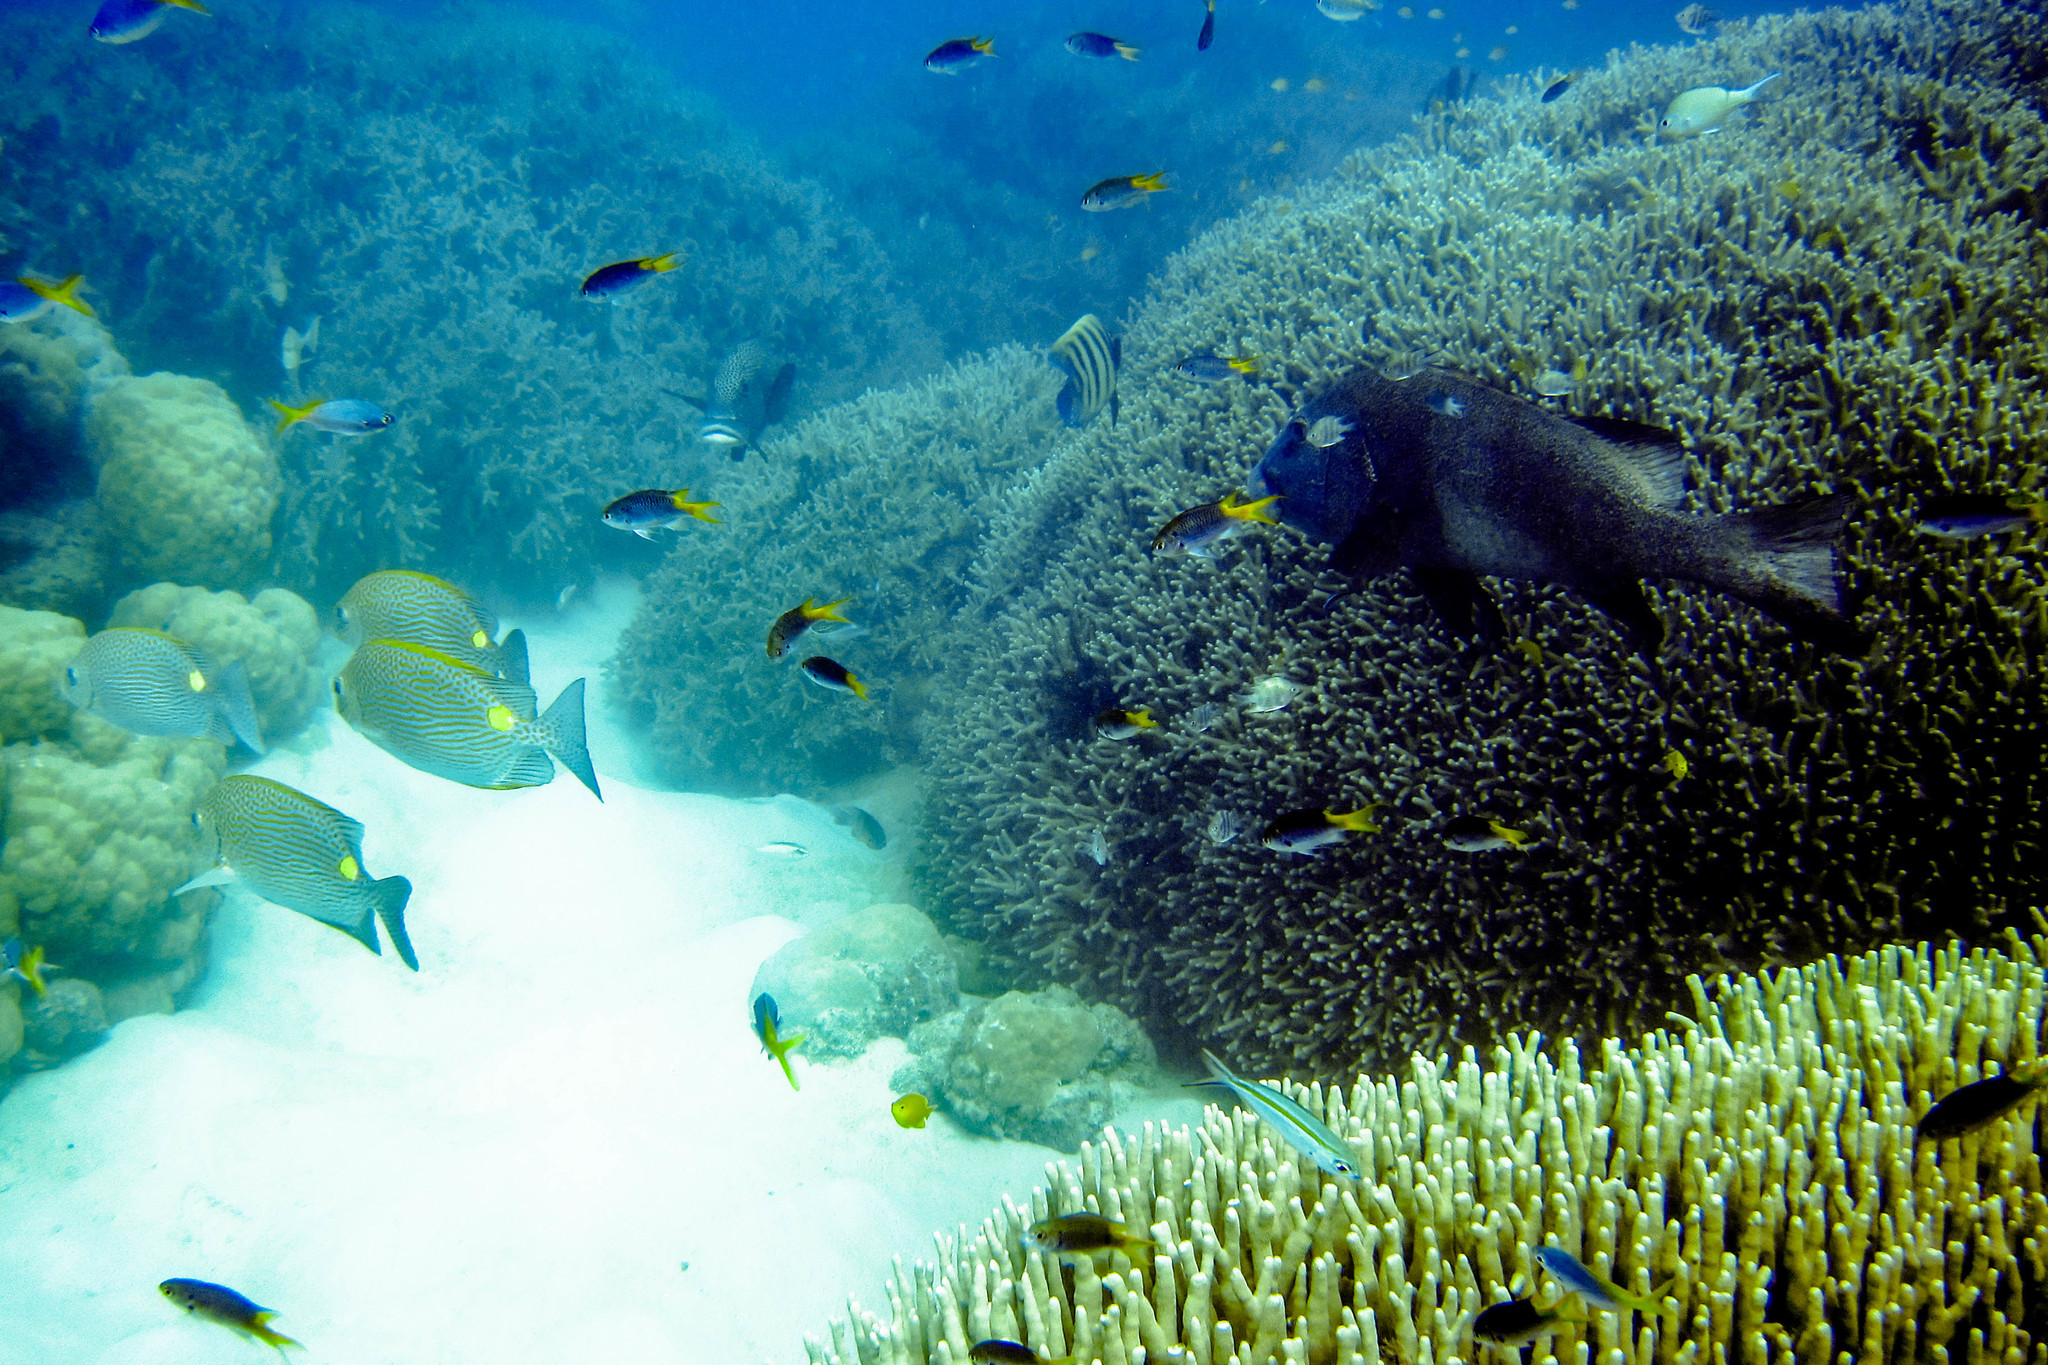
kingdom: Animalia
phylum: Chordata
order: Perciformes
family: Pomacentridae
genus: Neopomacentrus
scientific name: Neopomacentrus azysron
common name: Yellow-tail damsel
